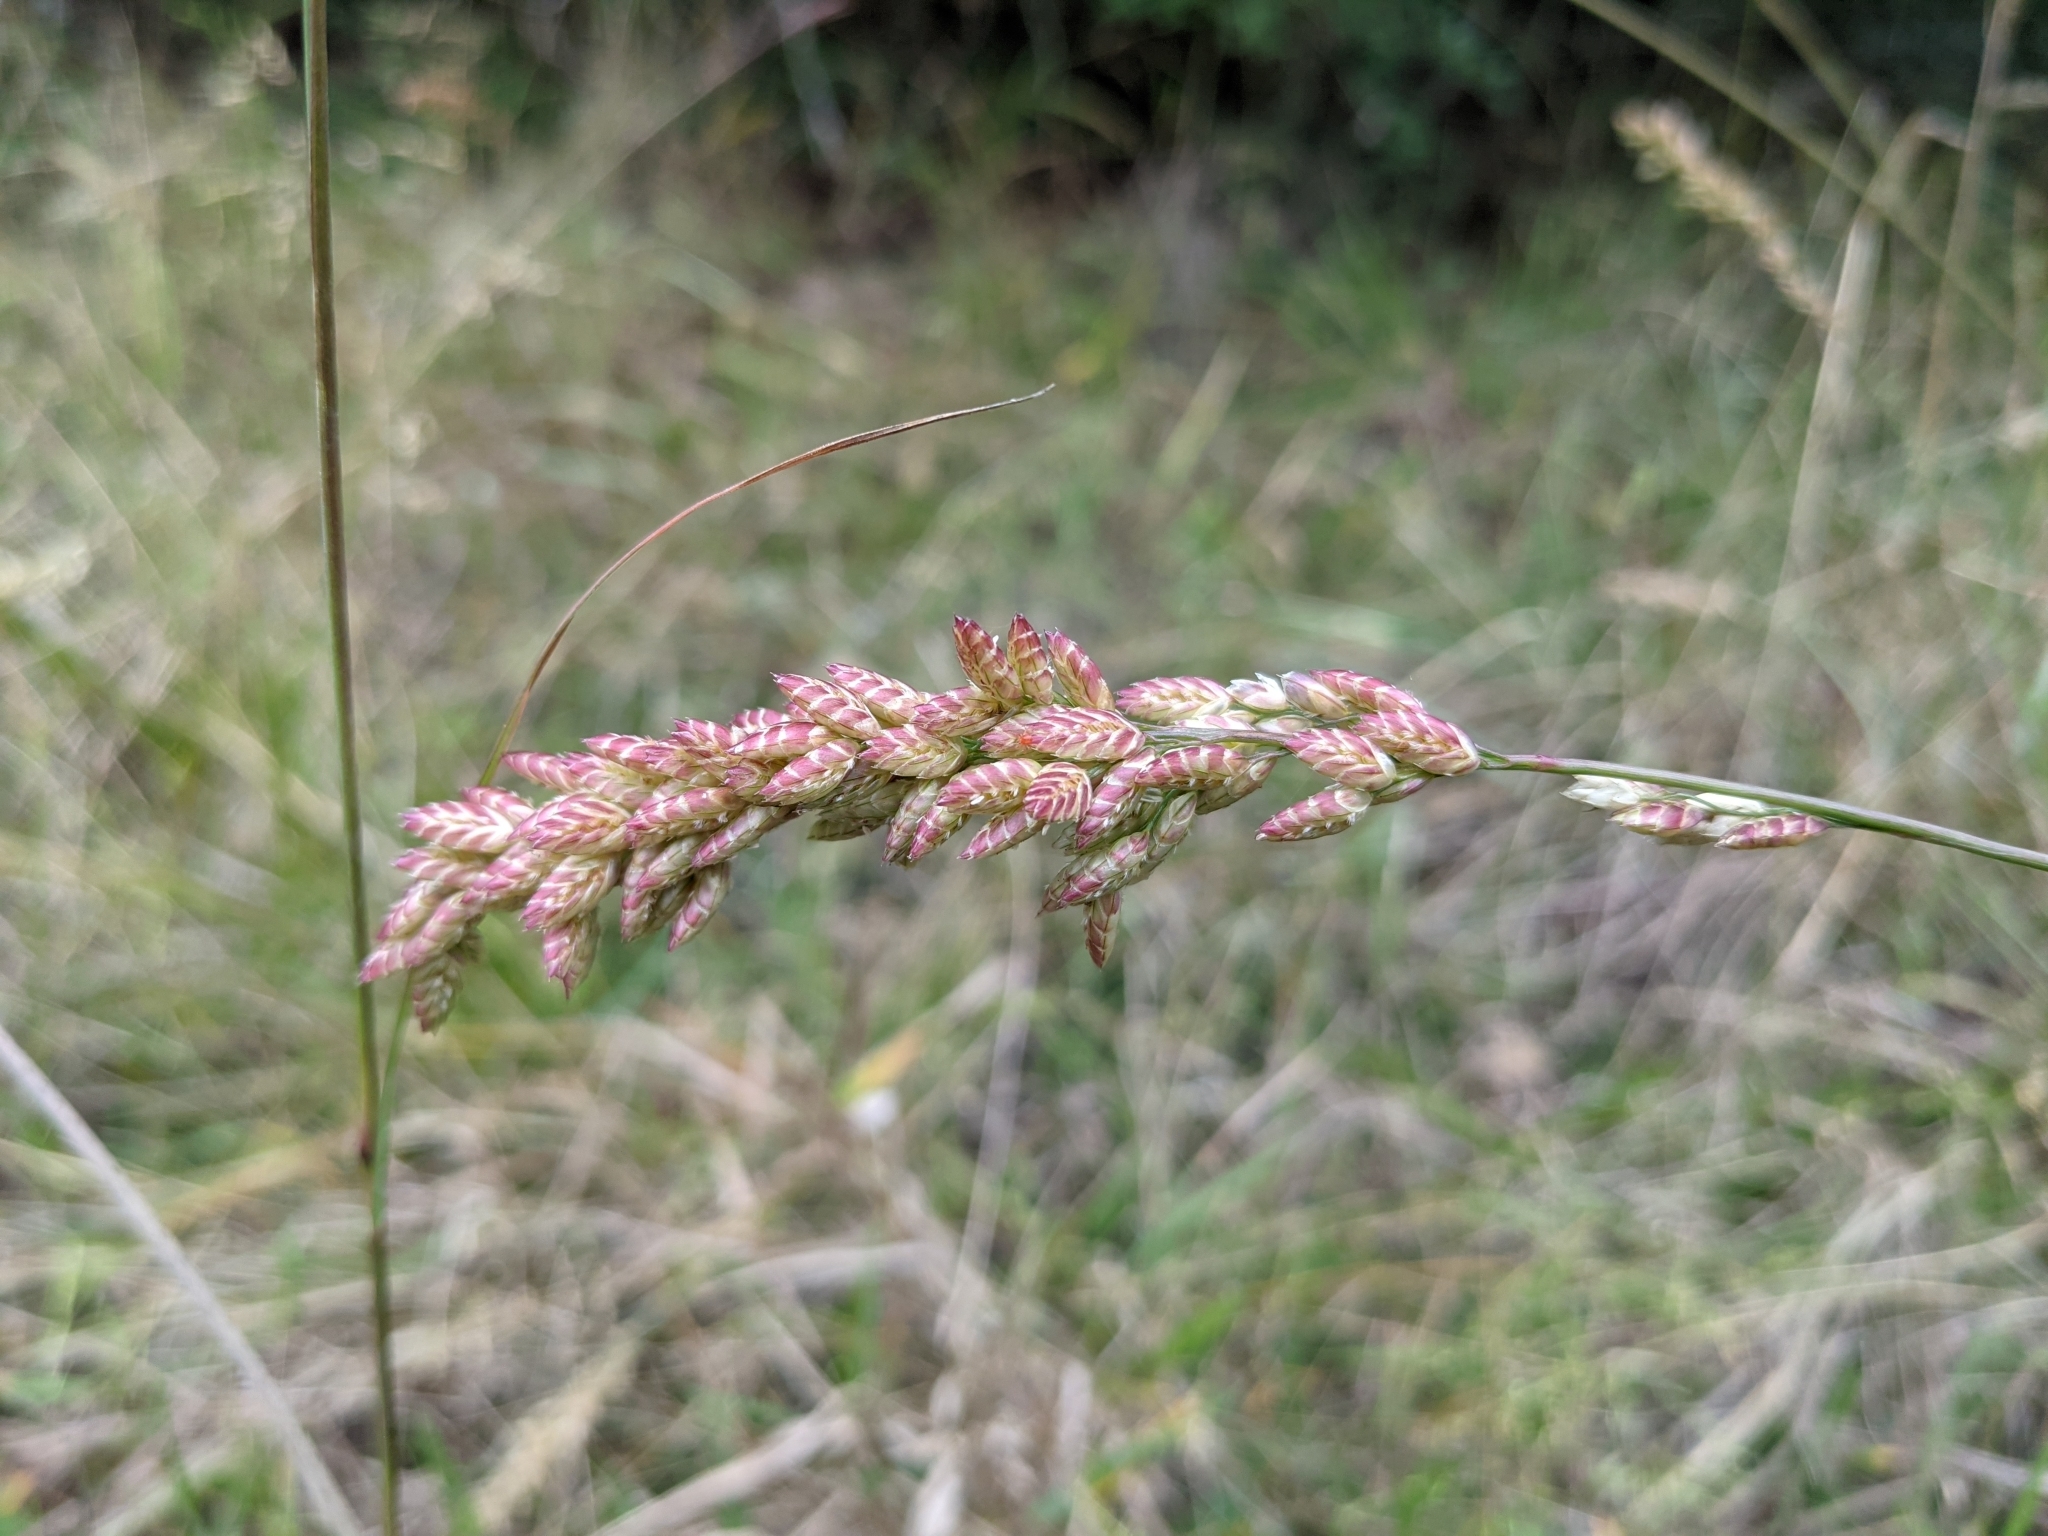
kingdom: Plantae
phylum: Tracheophyta
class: Liliopsida
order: Poales
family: Poaceae
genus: Tridens
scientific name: Tridens congestus
